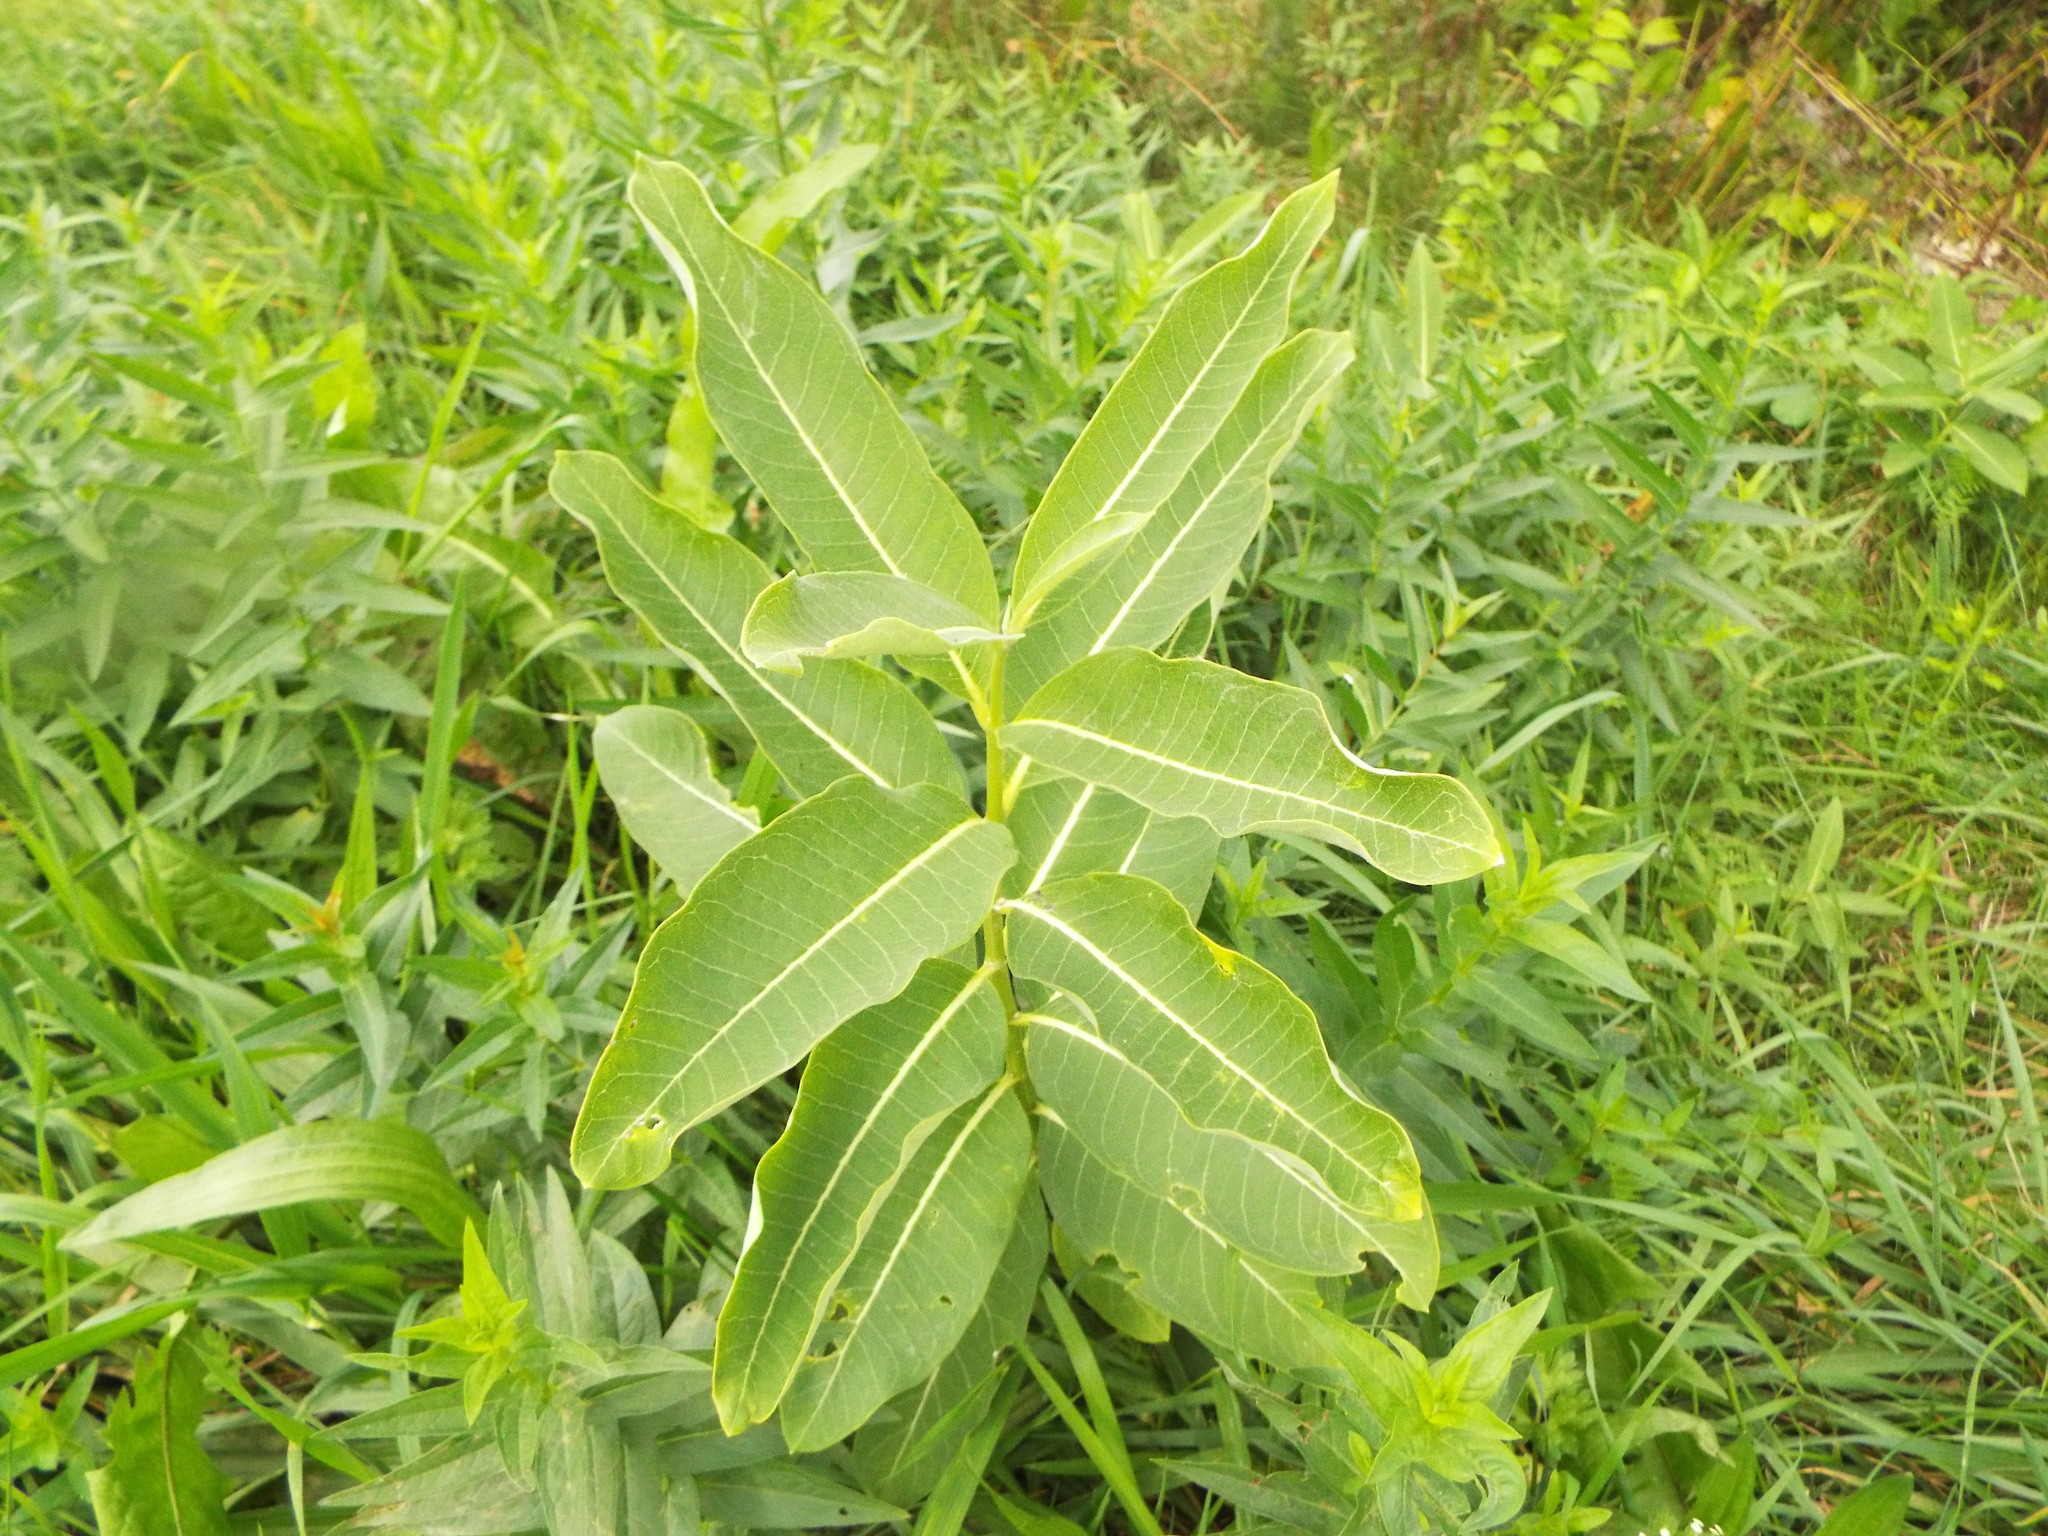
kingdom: Plantae
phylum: Tracheophyta
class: Magnoliopsida
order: Gentianales
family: Apocynaceae
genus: Asclepias
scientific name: Asclepias syriaca
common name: Common milkweed
